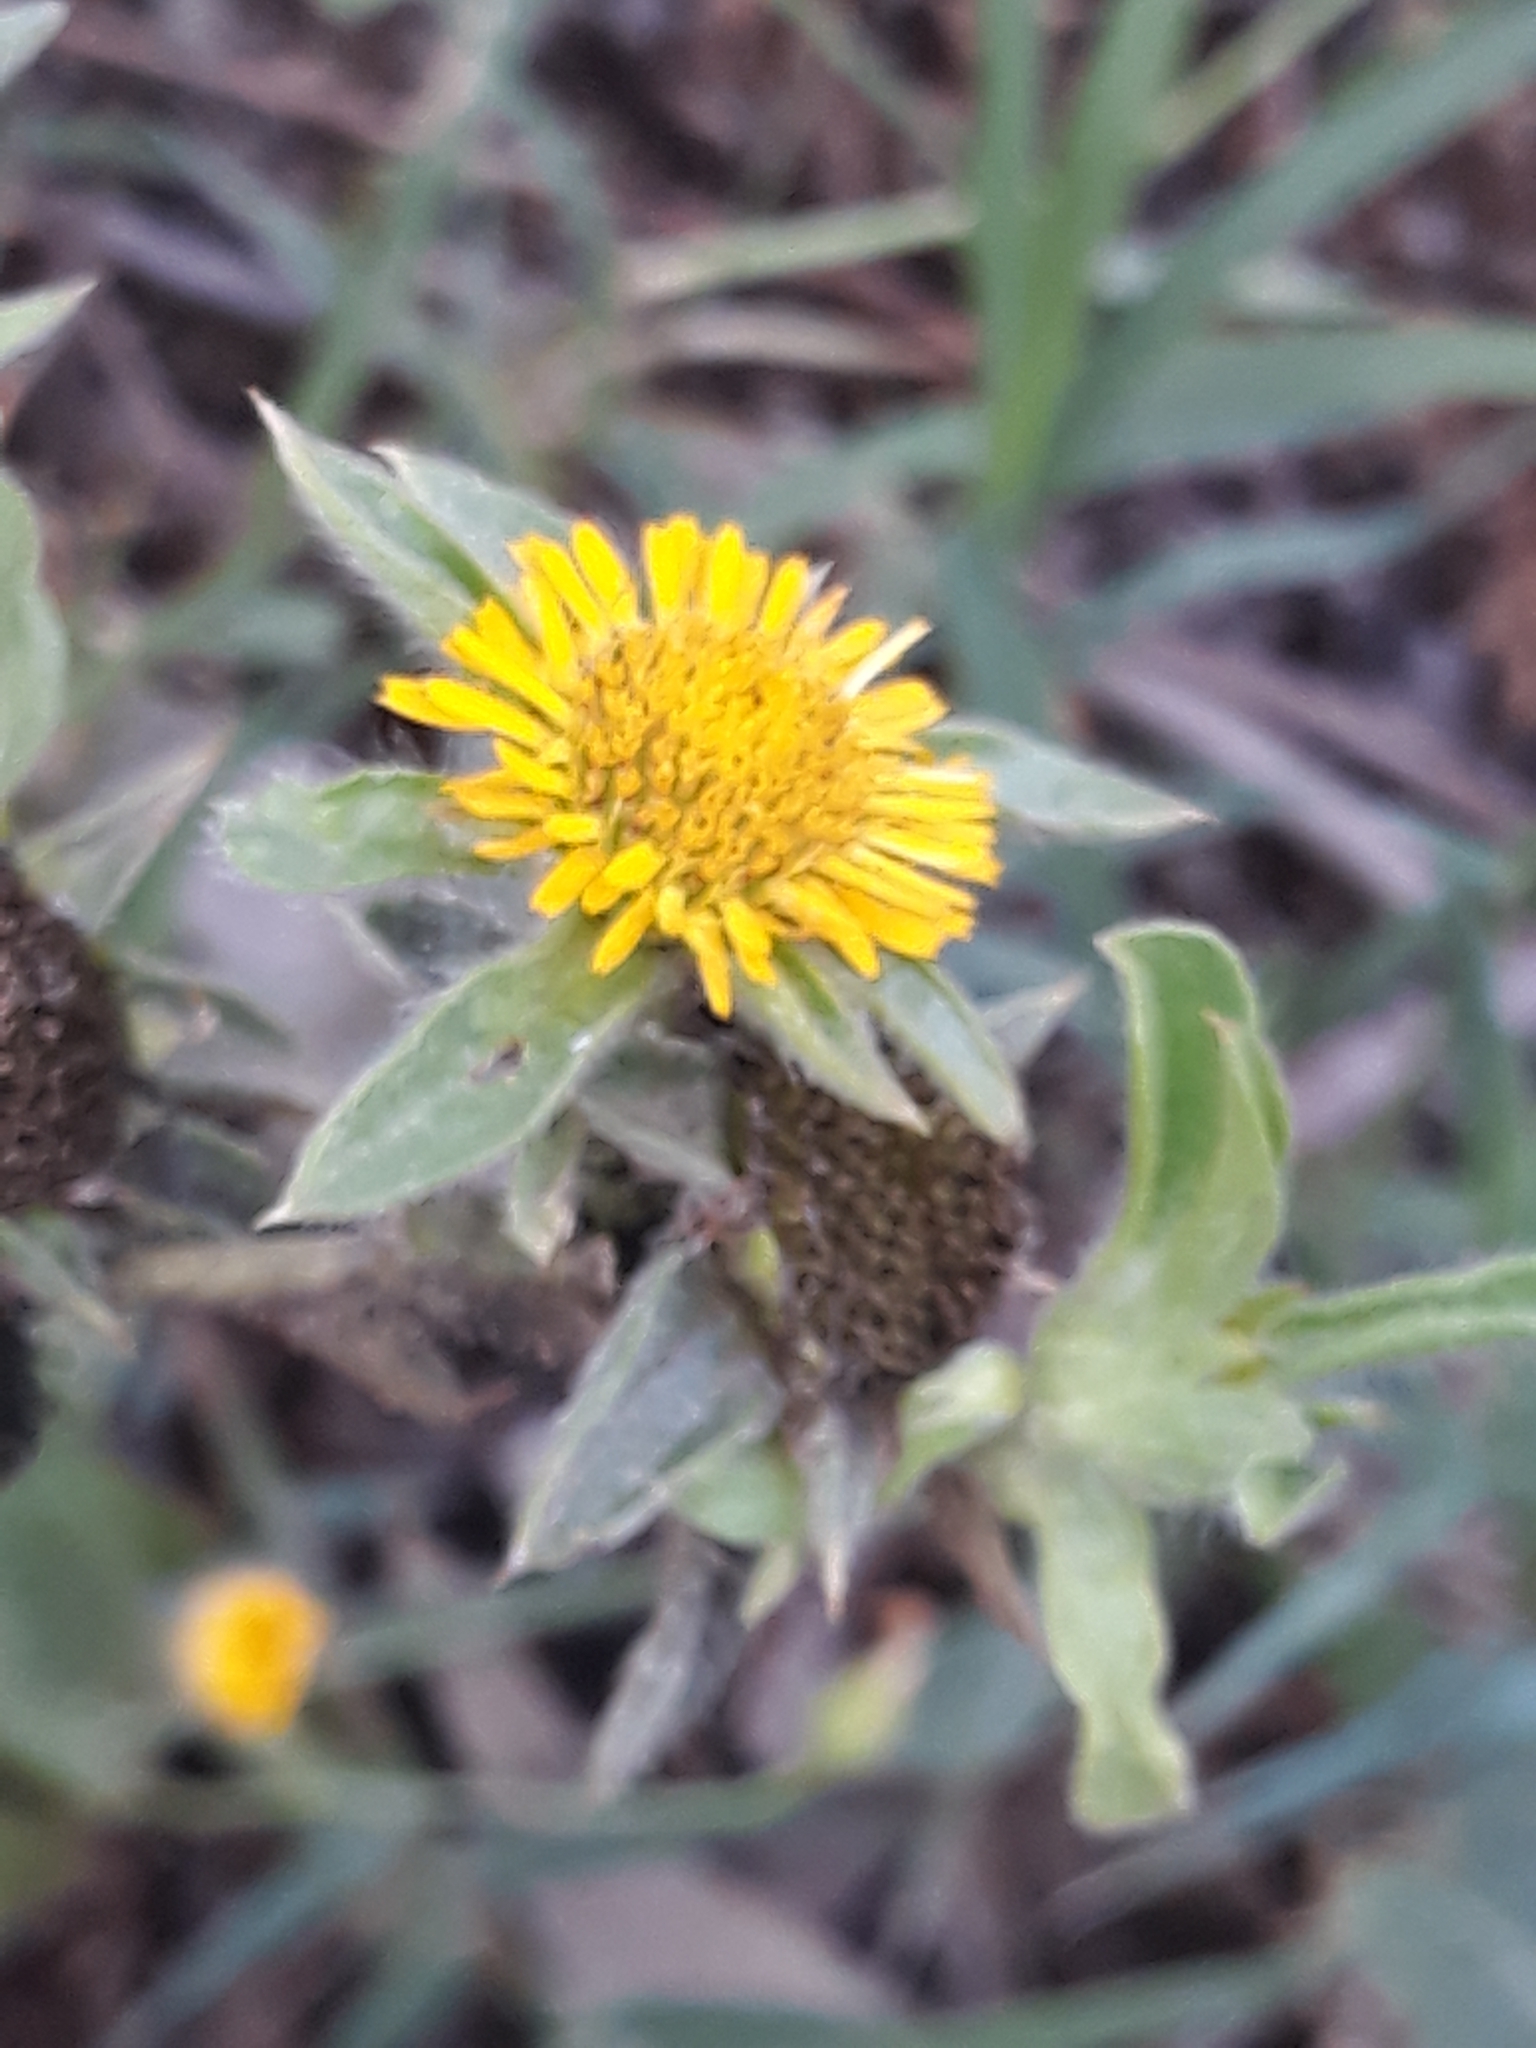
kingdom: Plantae
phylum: Tracheophyta
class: Magnoliopsida
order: Asterales
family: Asteraceae
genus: Pallenis
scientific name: Pallenis spinosa
